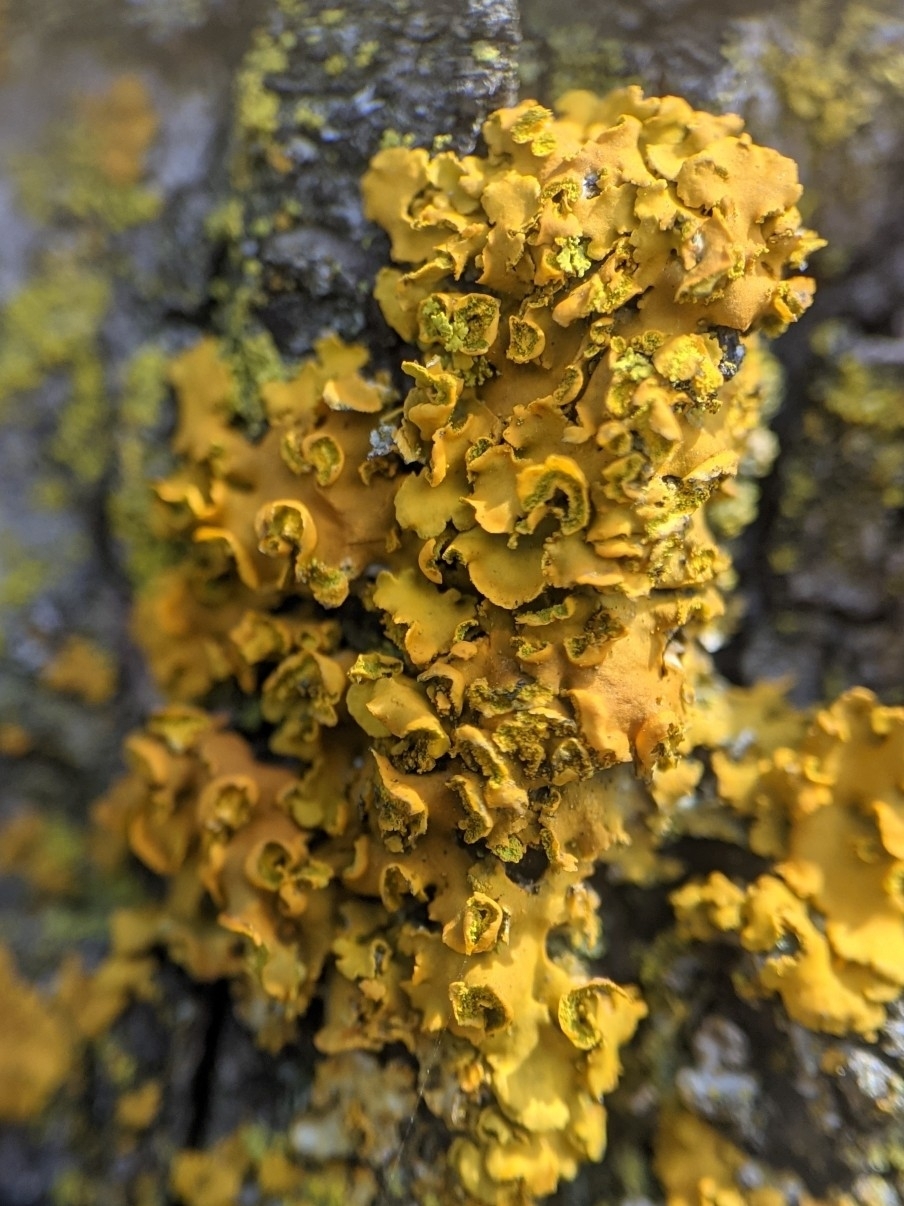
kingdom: Fungi
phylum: Ascomycota
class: Lecanoromycetes
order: Teloschistales
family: Teloschistaceae
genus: Oxneria
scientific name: Oxneria fallax
